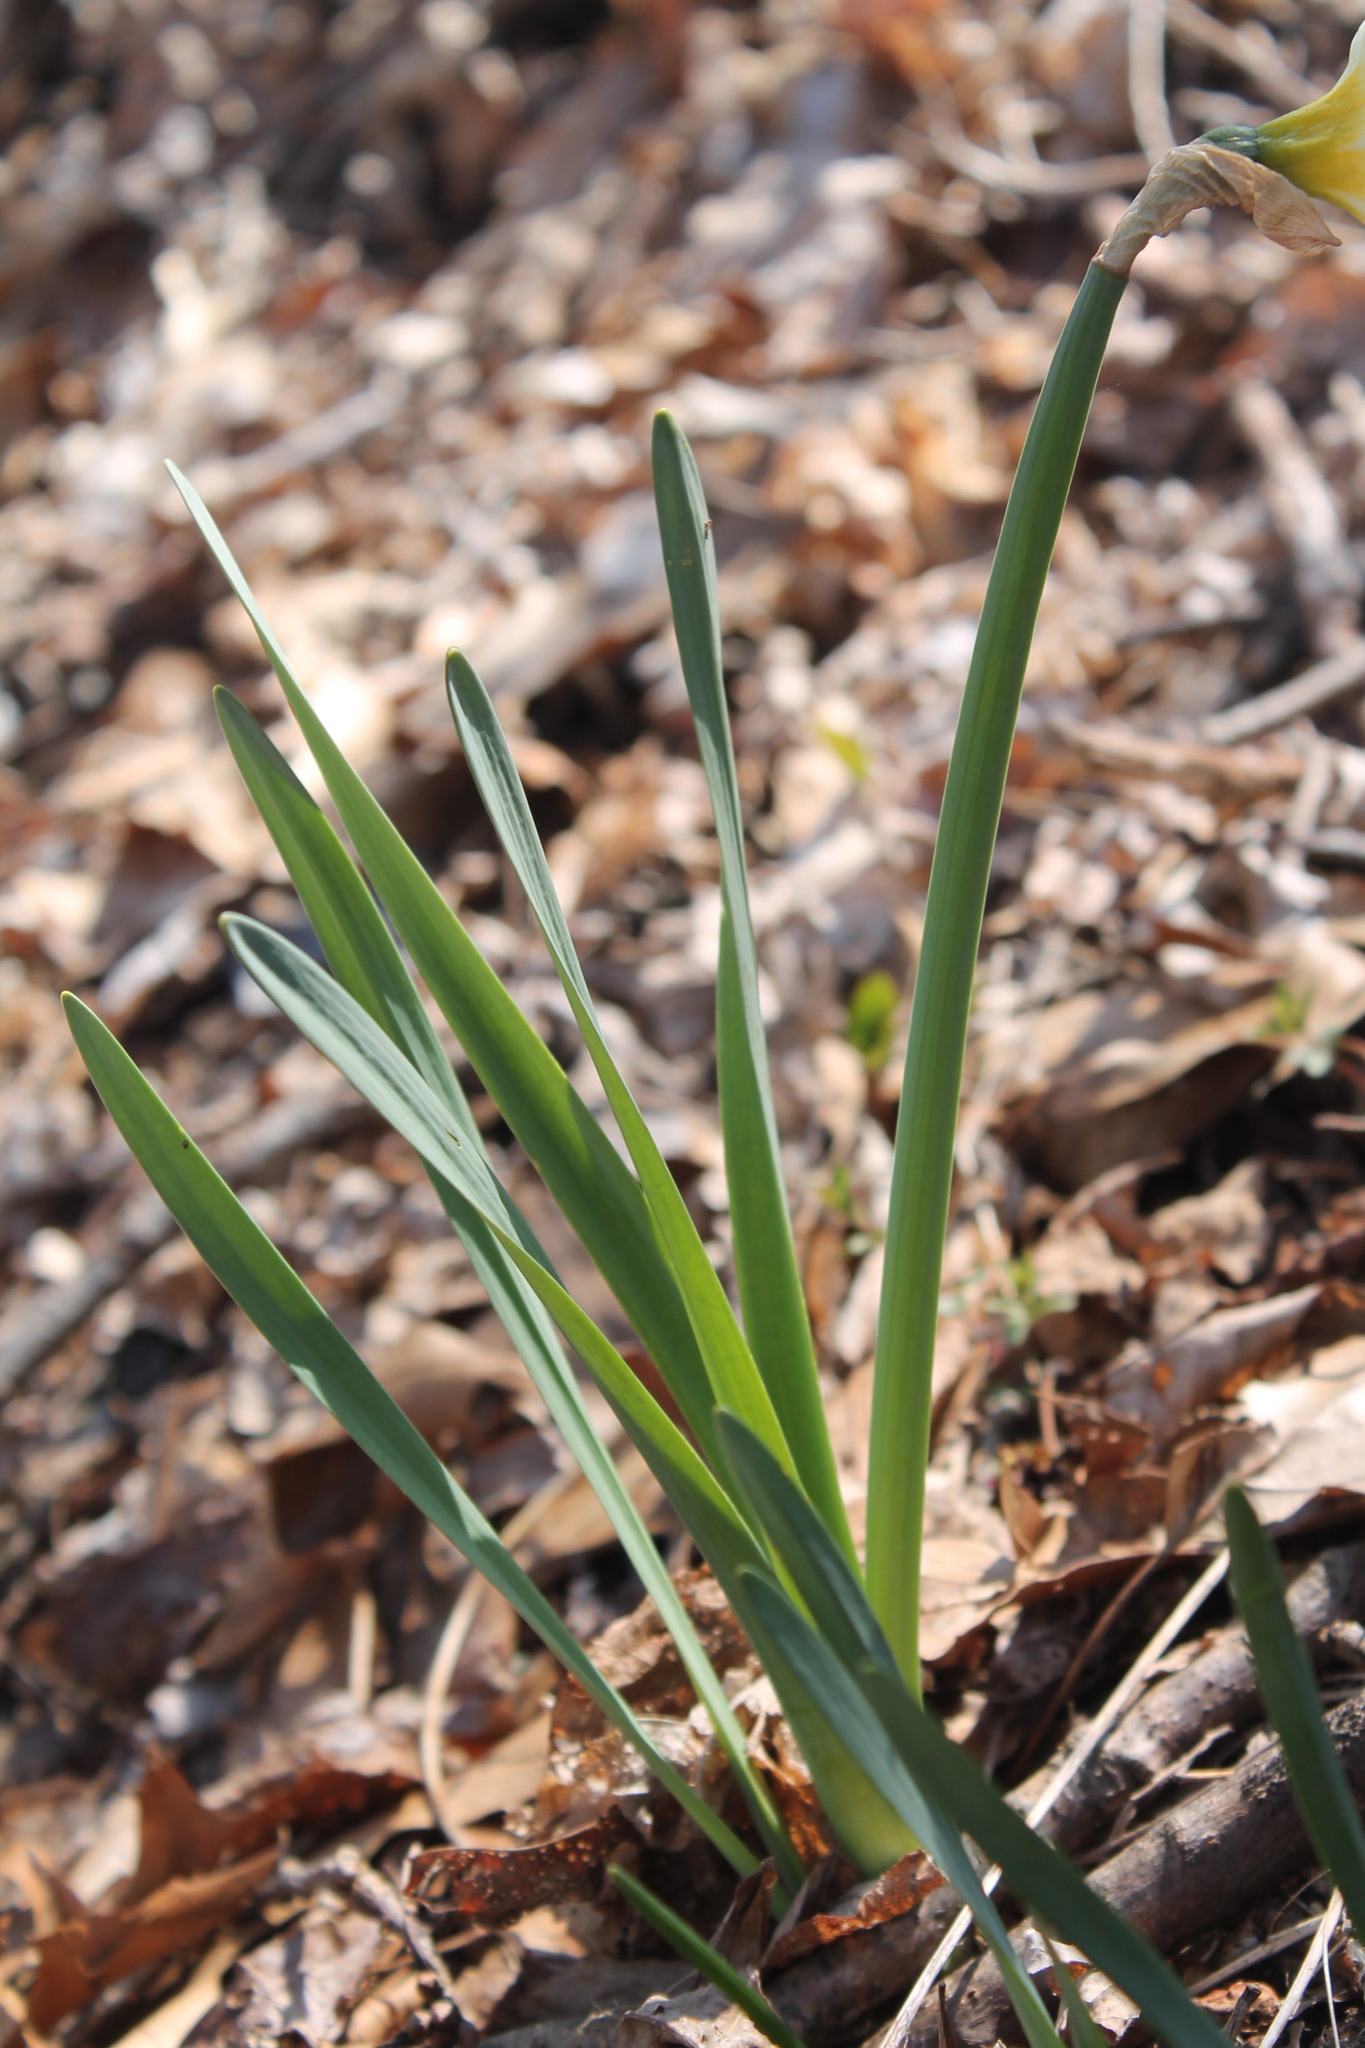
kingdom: Plantae
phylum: Tracheophyta
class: Liliopsida
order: Asparagales
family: Amaryllidaceae
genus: Narcissus
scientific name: Narcissus
